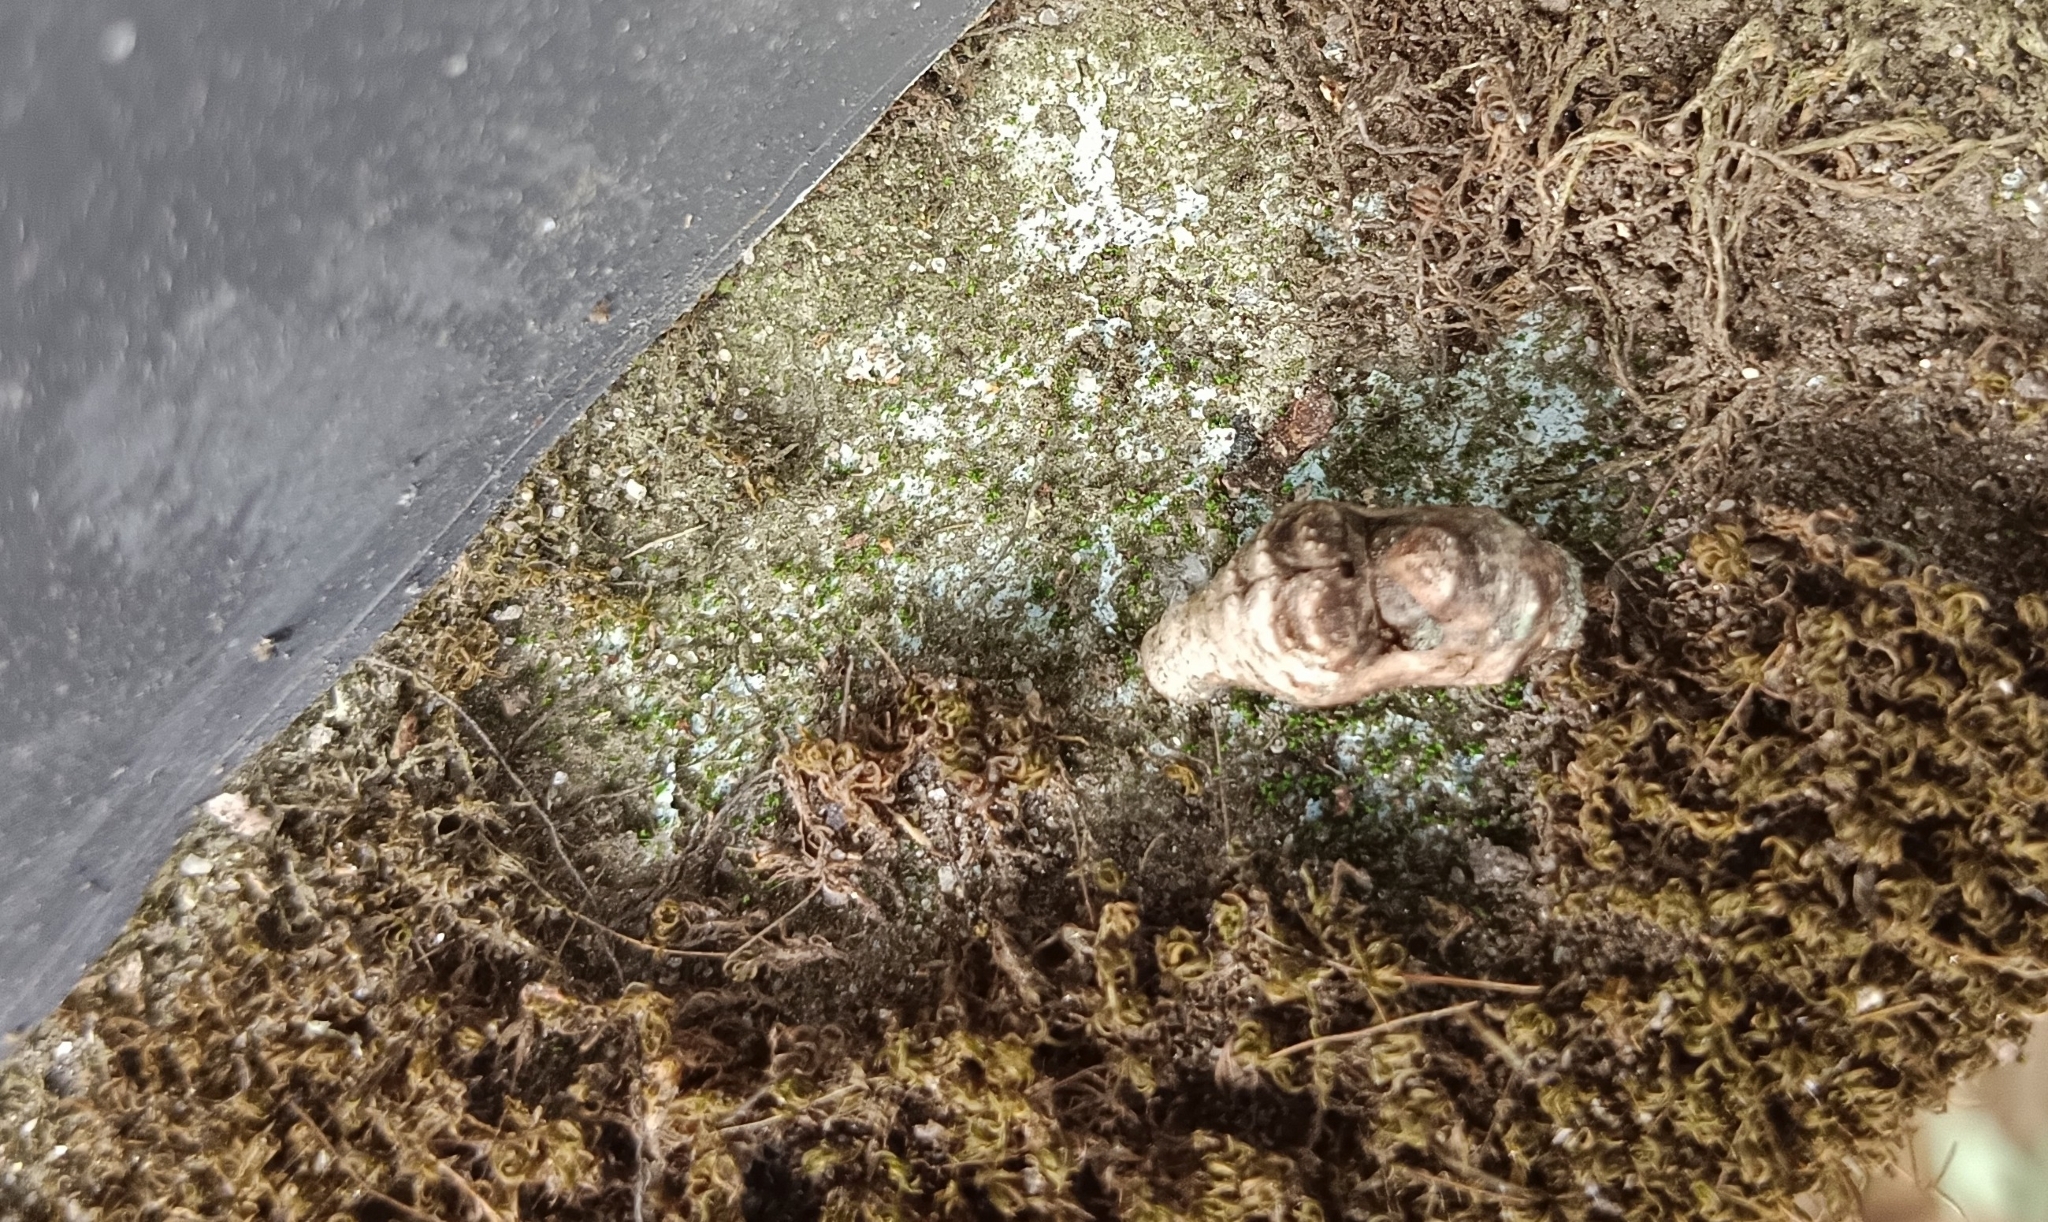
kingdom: Animalia
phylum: Arthropoda
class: Insecta
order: Lepidoptera
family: Lycaenidae
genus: Tajuria
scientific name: Tajuria cippus
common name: Peacock royal
